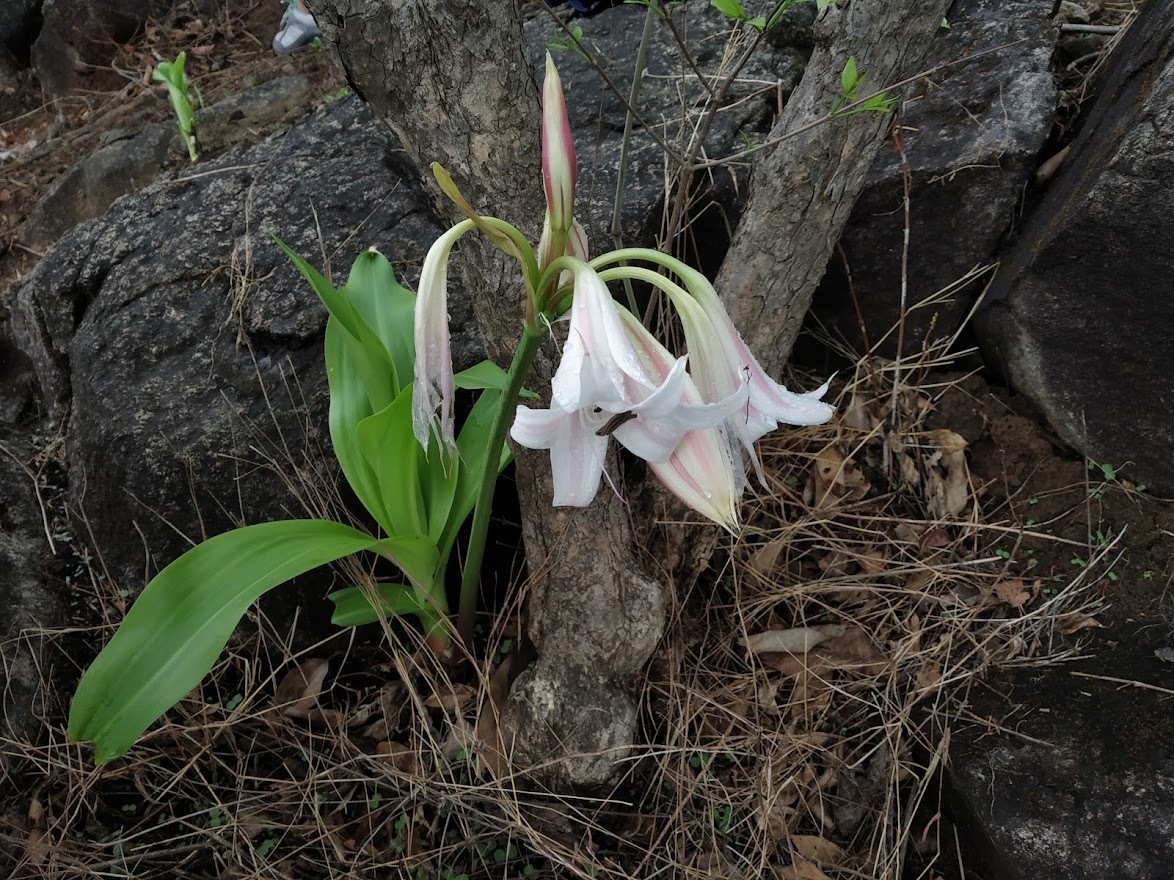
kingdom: Plantae
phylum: Tracheophyta
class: Liliopsida
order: Asparagales
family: Amaryllidaceae
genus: Crinum
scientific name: Crinum latifolium
